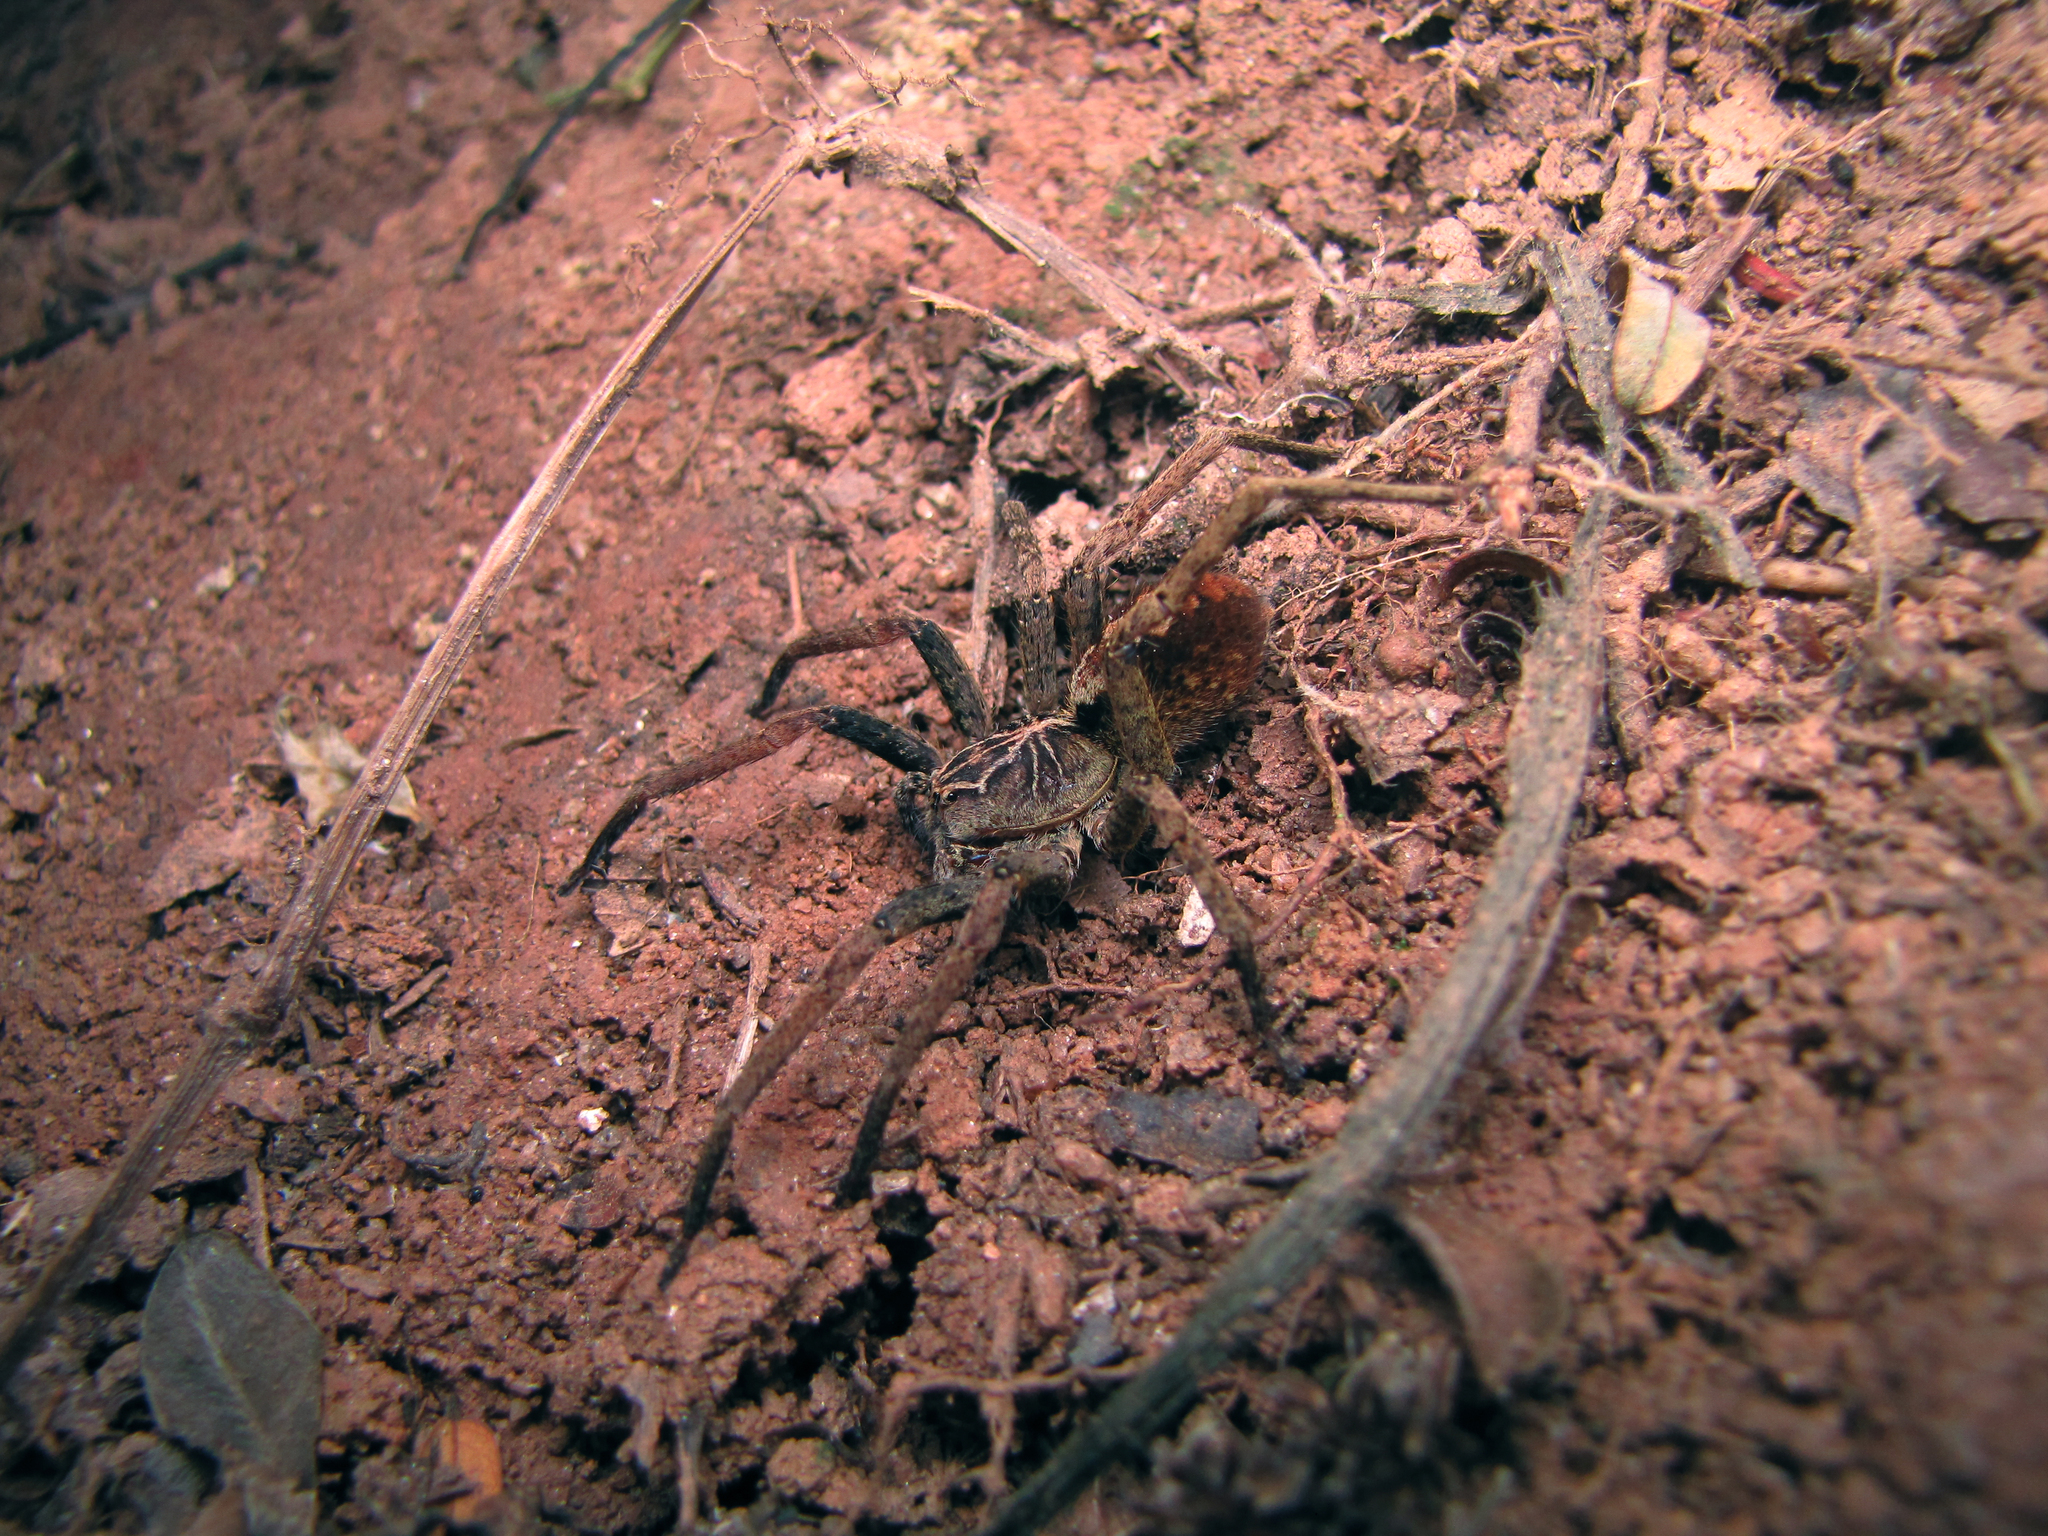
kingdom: Animalia
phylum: Arthropoda
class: Arachnida
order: Araneae
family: Ctenidae
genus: Ctenus
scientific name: Ctenus ornatus
